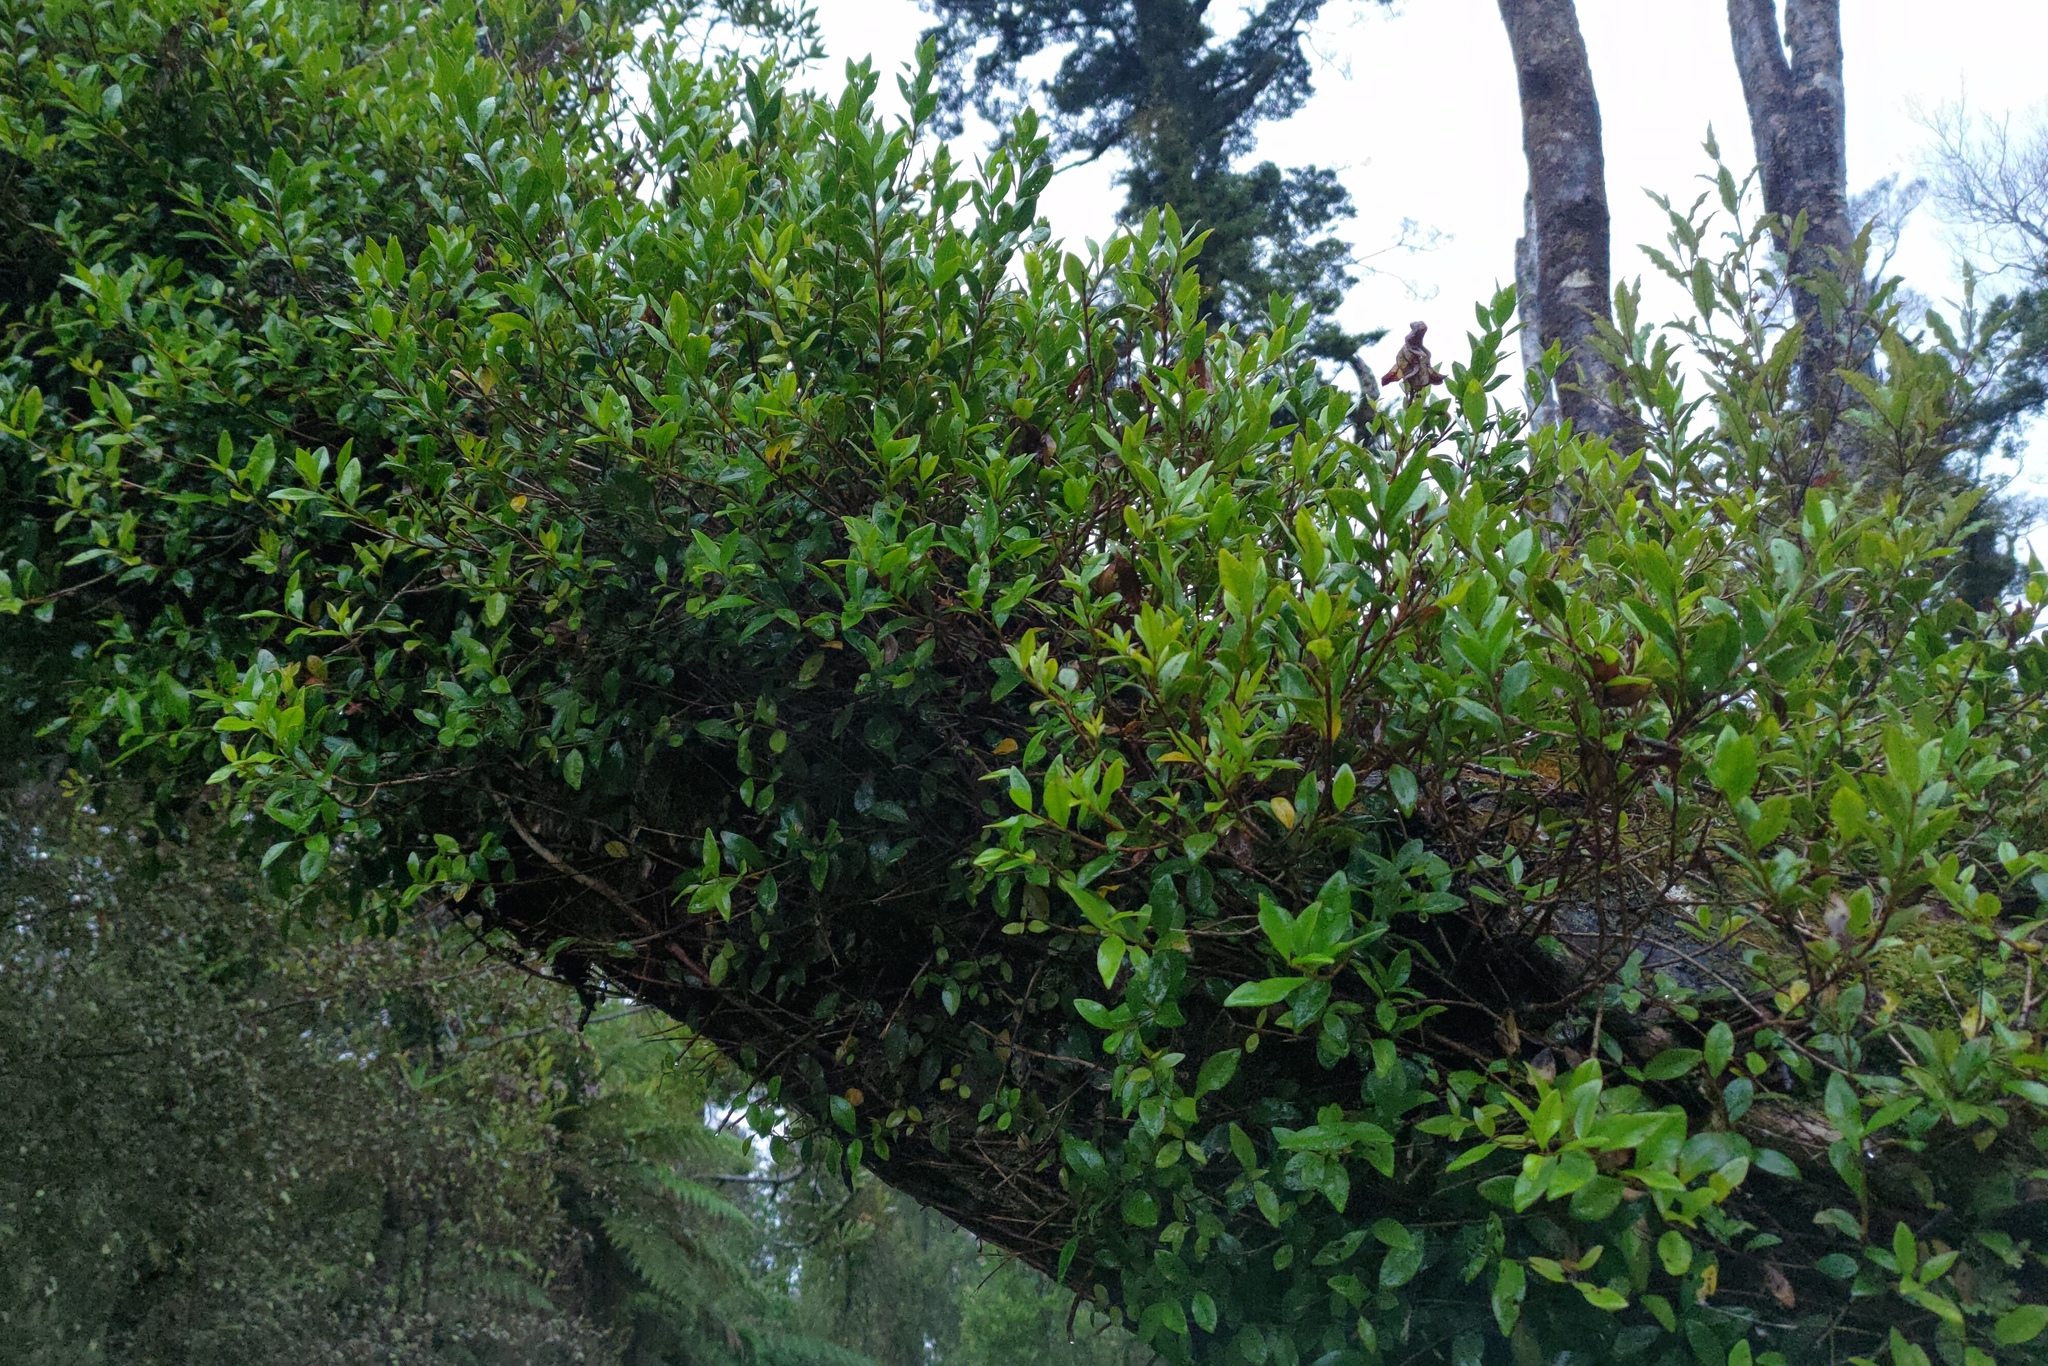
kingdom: Plantae
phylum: Tracheophyta
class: Magnoliopsida
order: Myrtales
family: Myrtaceae
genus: Metrosideros
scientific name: Metrosideros umbellata
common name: Southern rata
